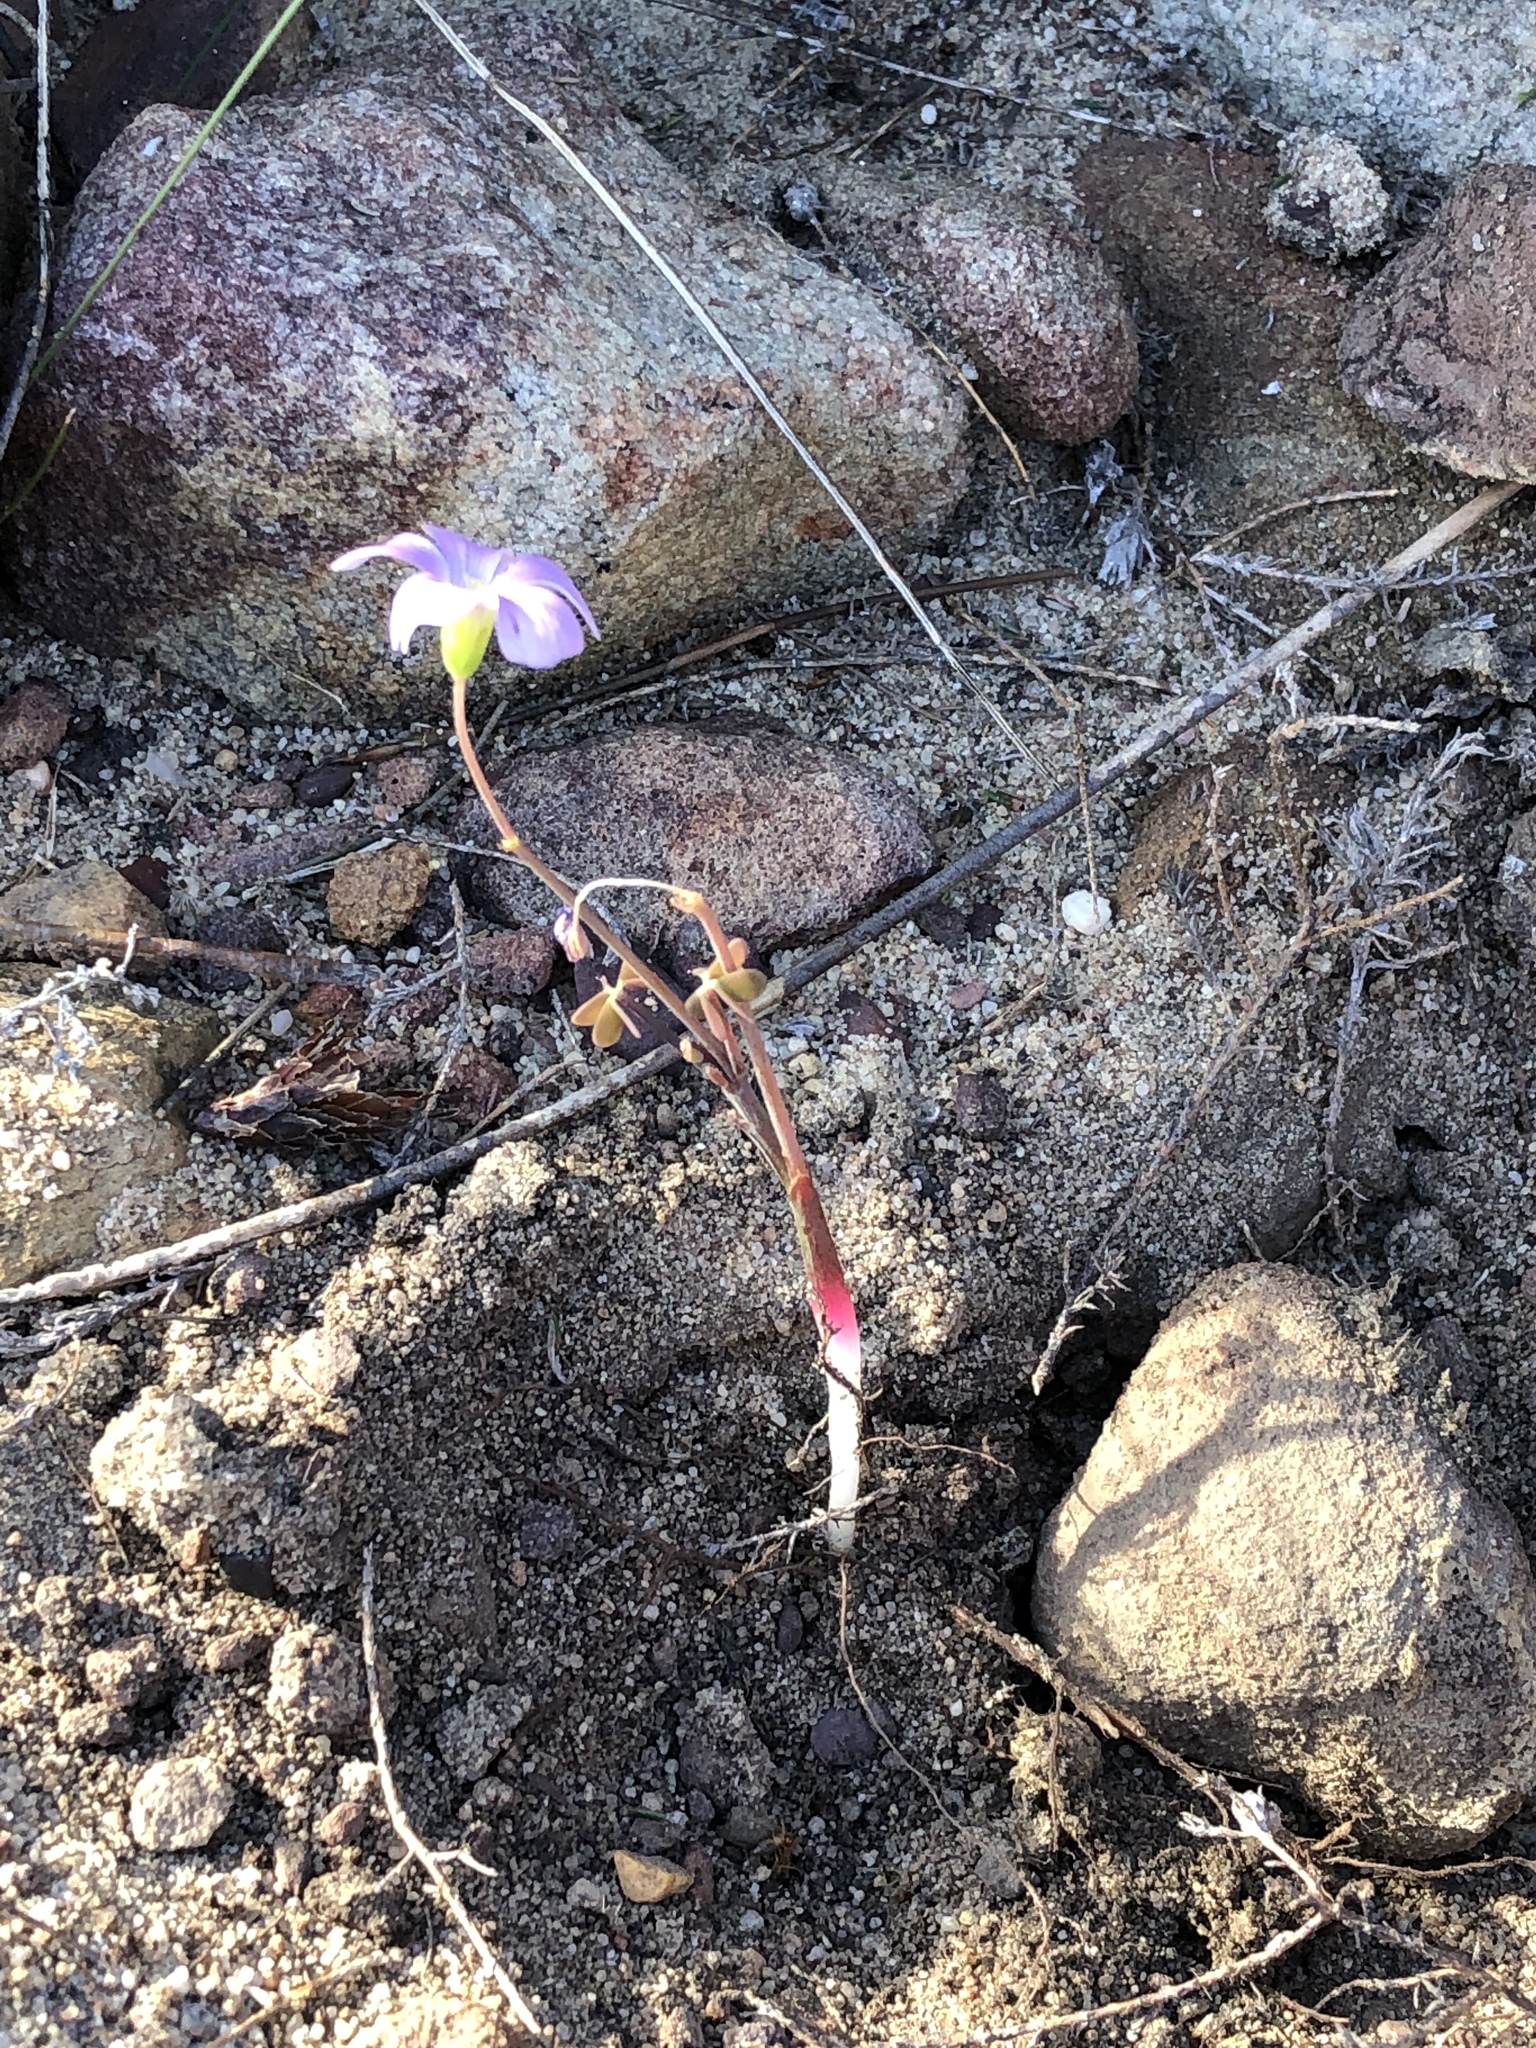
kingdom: Plantae
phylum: Tracheophyta
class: Magnoliopsida
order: Oxalidales
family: Oxalidaceae
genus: Oxalis
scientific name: Oxalis livida
